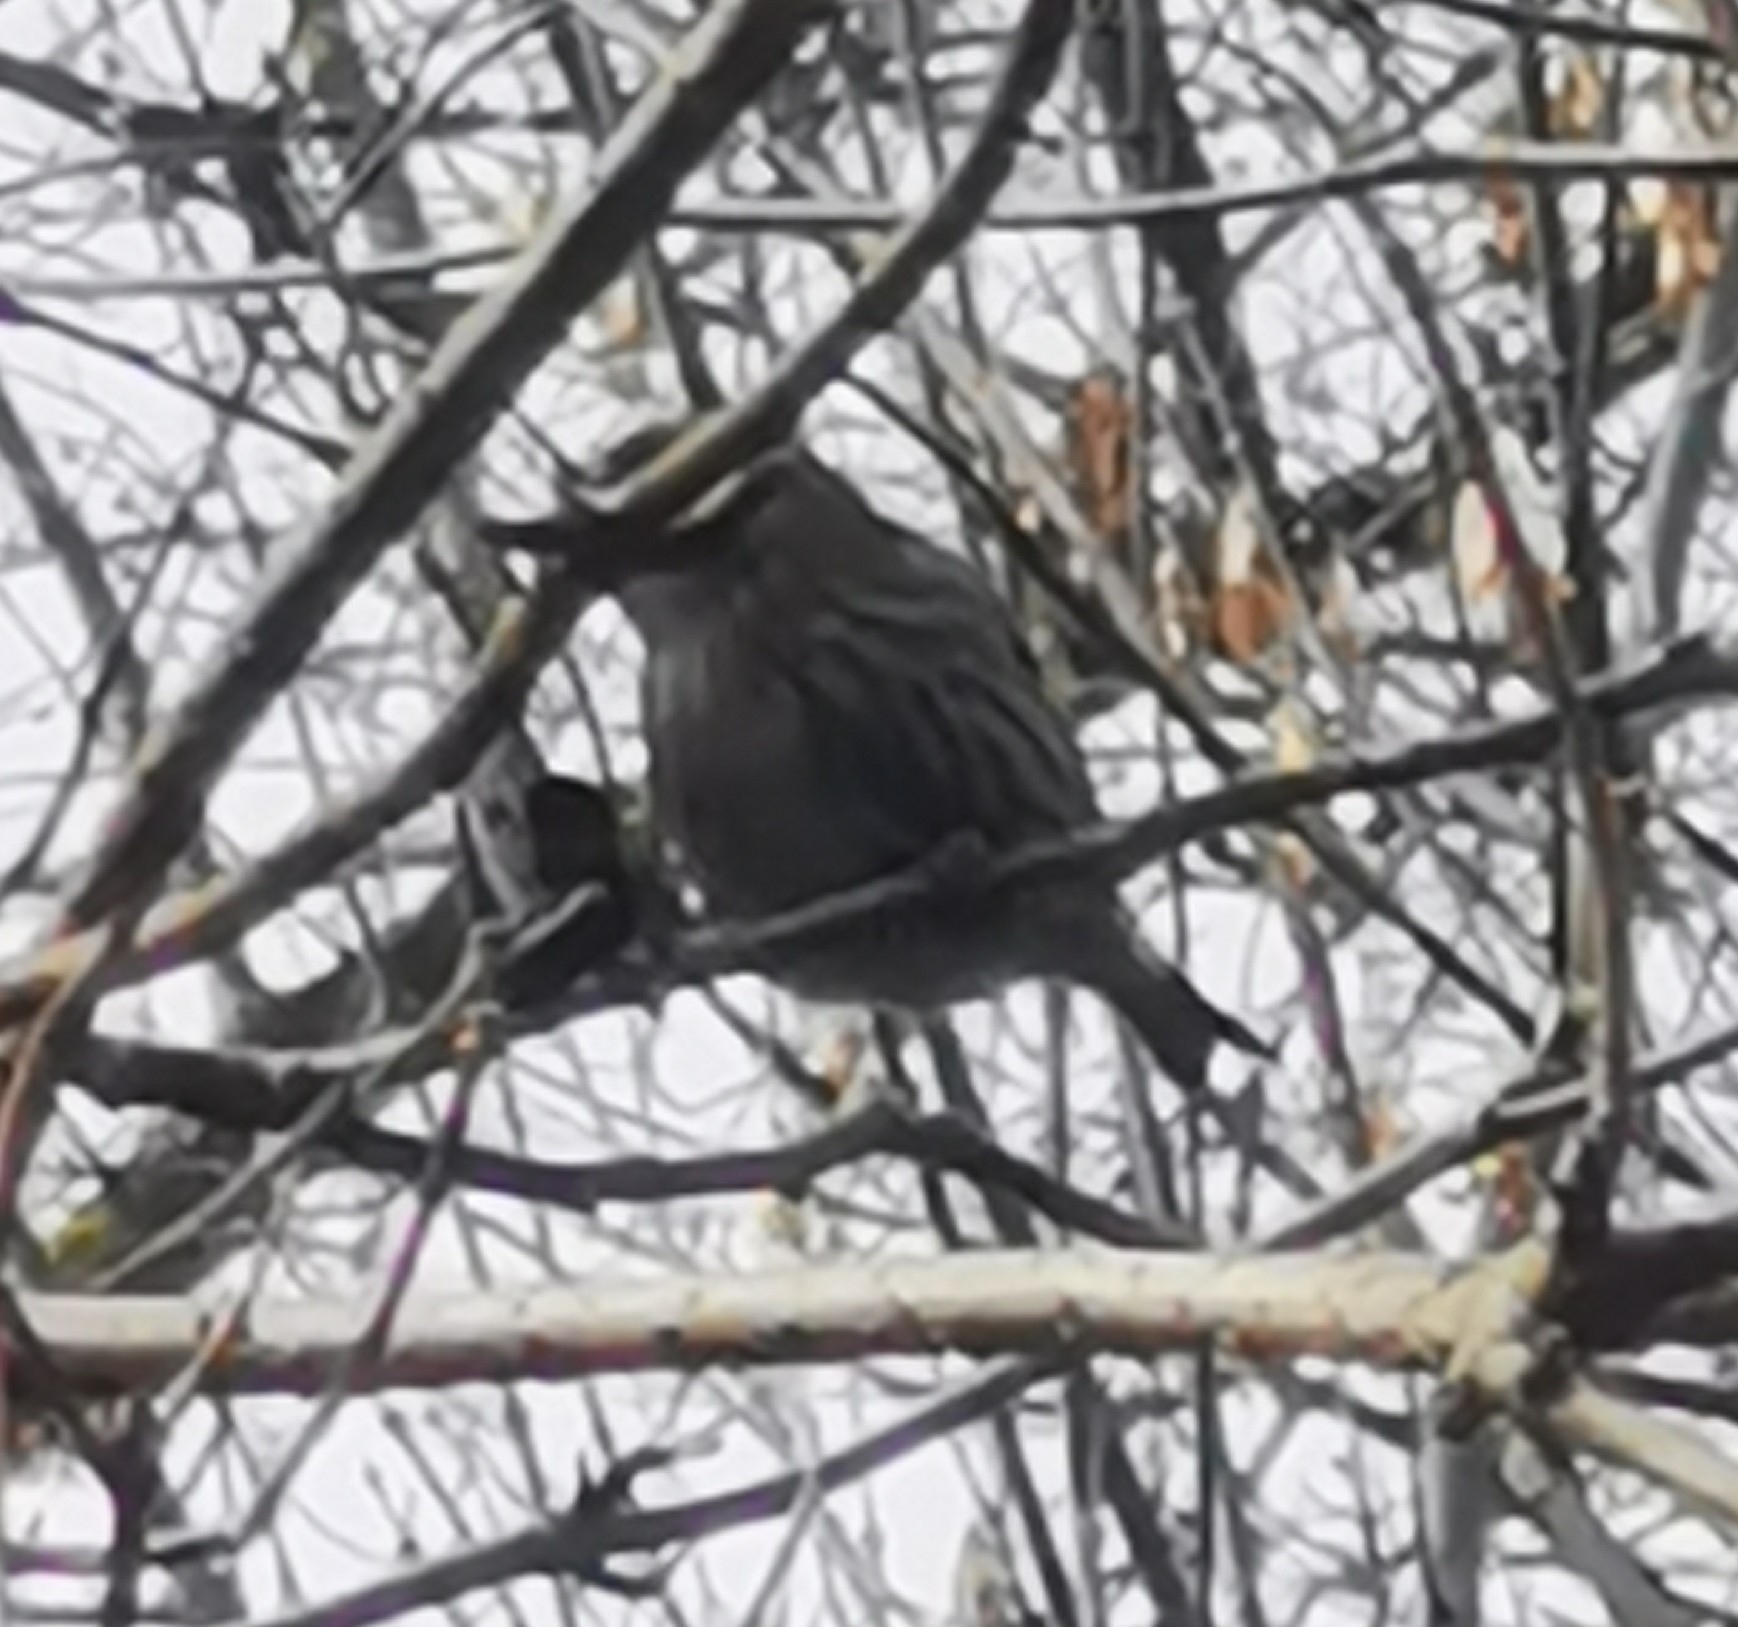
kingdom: Animalia
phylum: Chordata
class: Aves
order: Passeriformes
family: Fringillidae
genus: Spinus
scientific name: Spinus spinus
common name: Eurasian siskin
